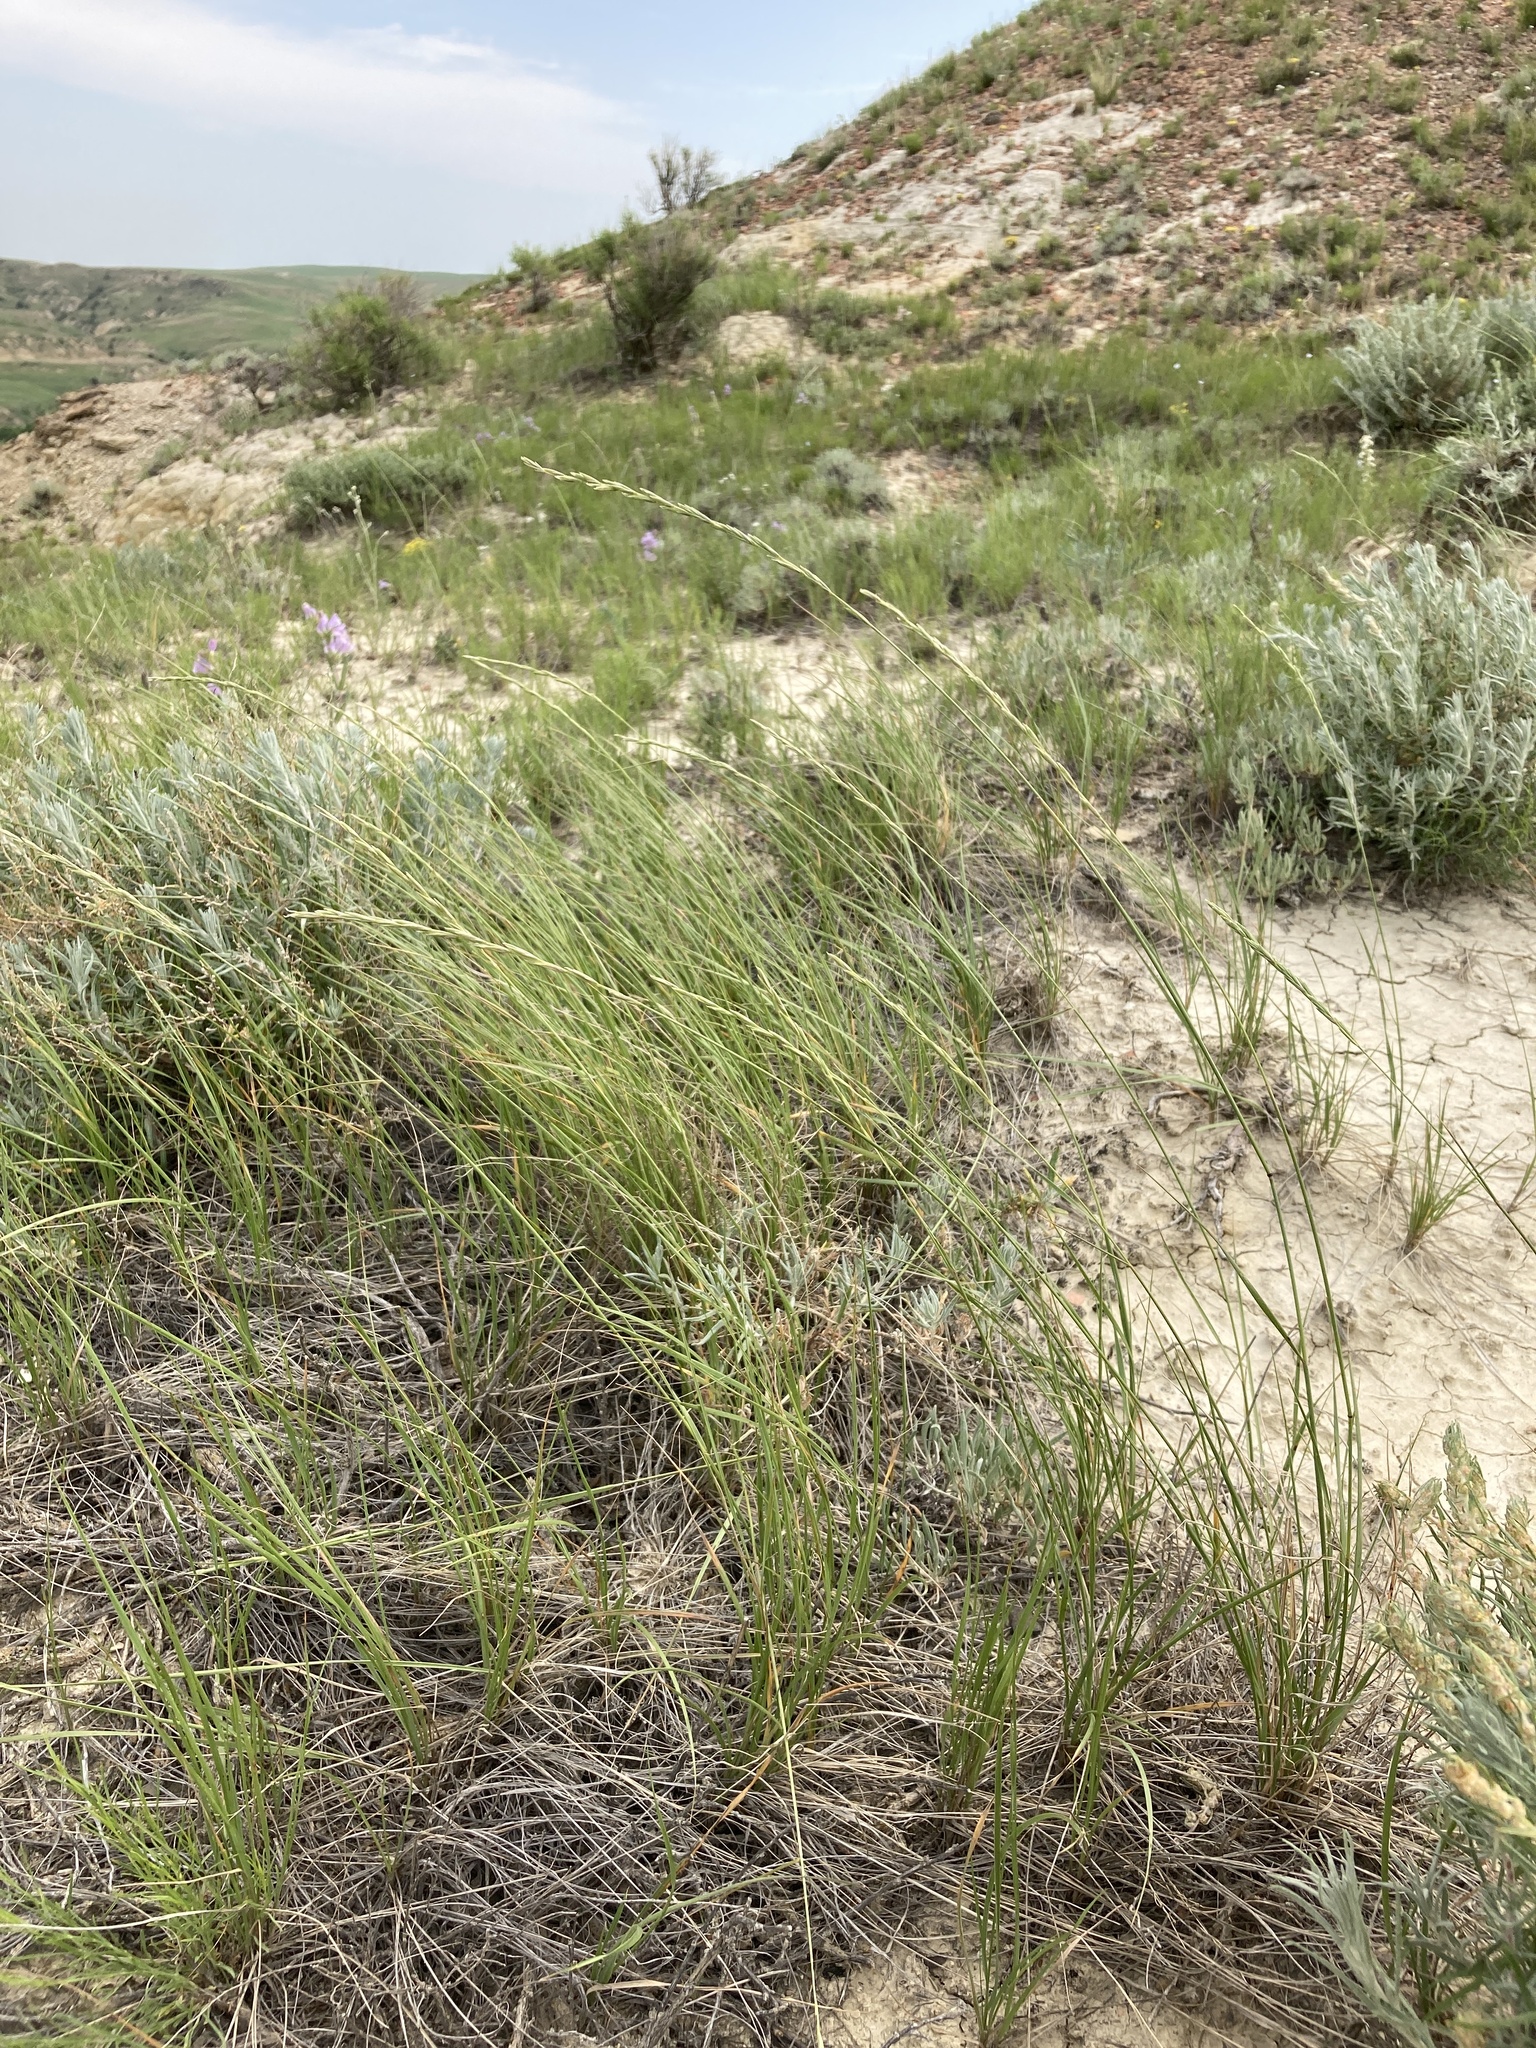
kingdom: Plantae
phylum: Tracheophyta
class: Liliopsida
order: Poales
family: Poaceae
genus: Elymus
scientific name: Elymus lanceolatus
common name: Thick-spike wheatgrass
